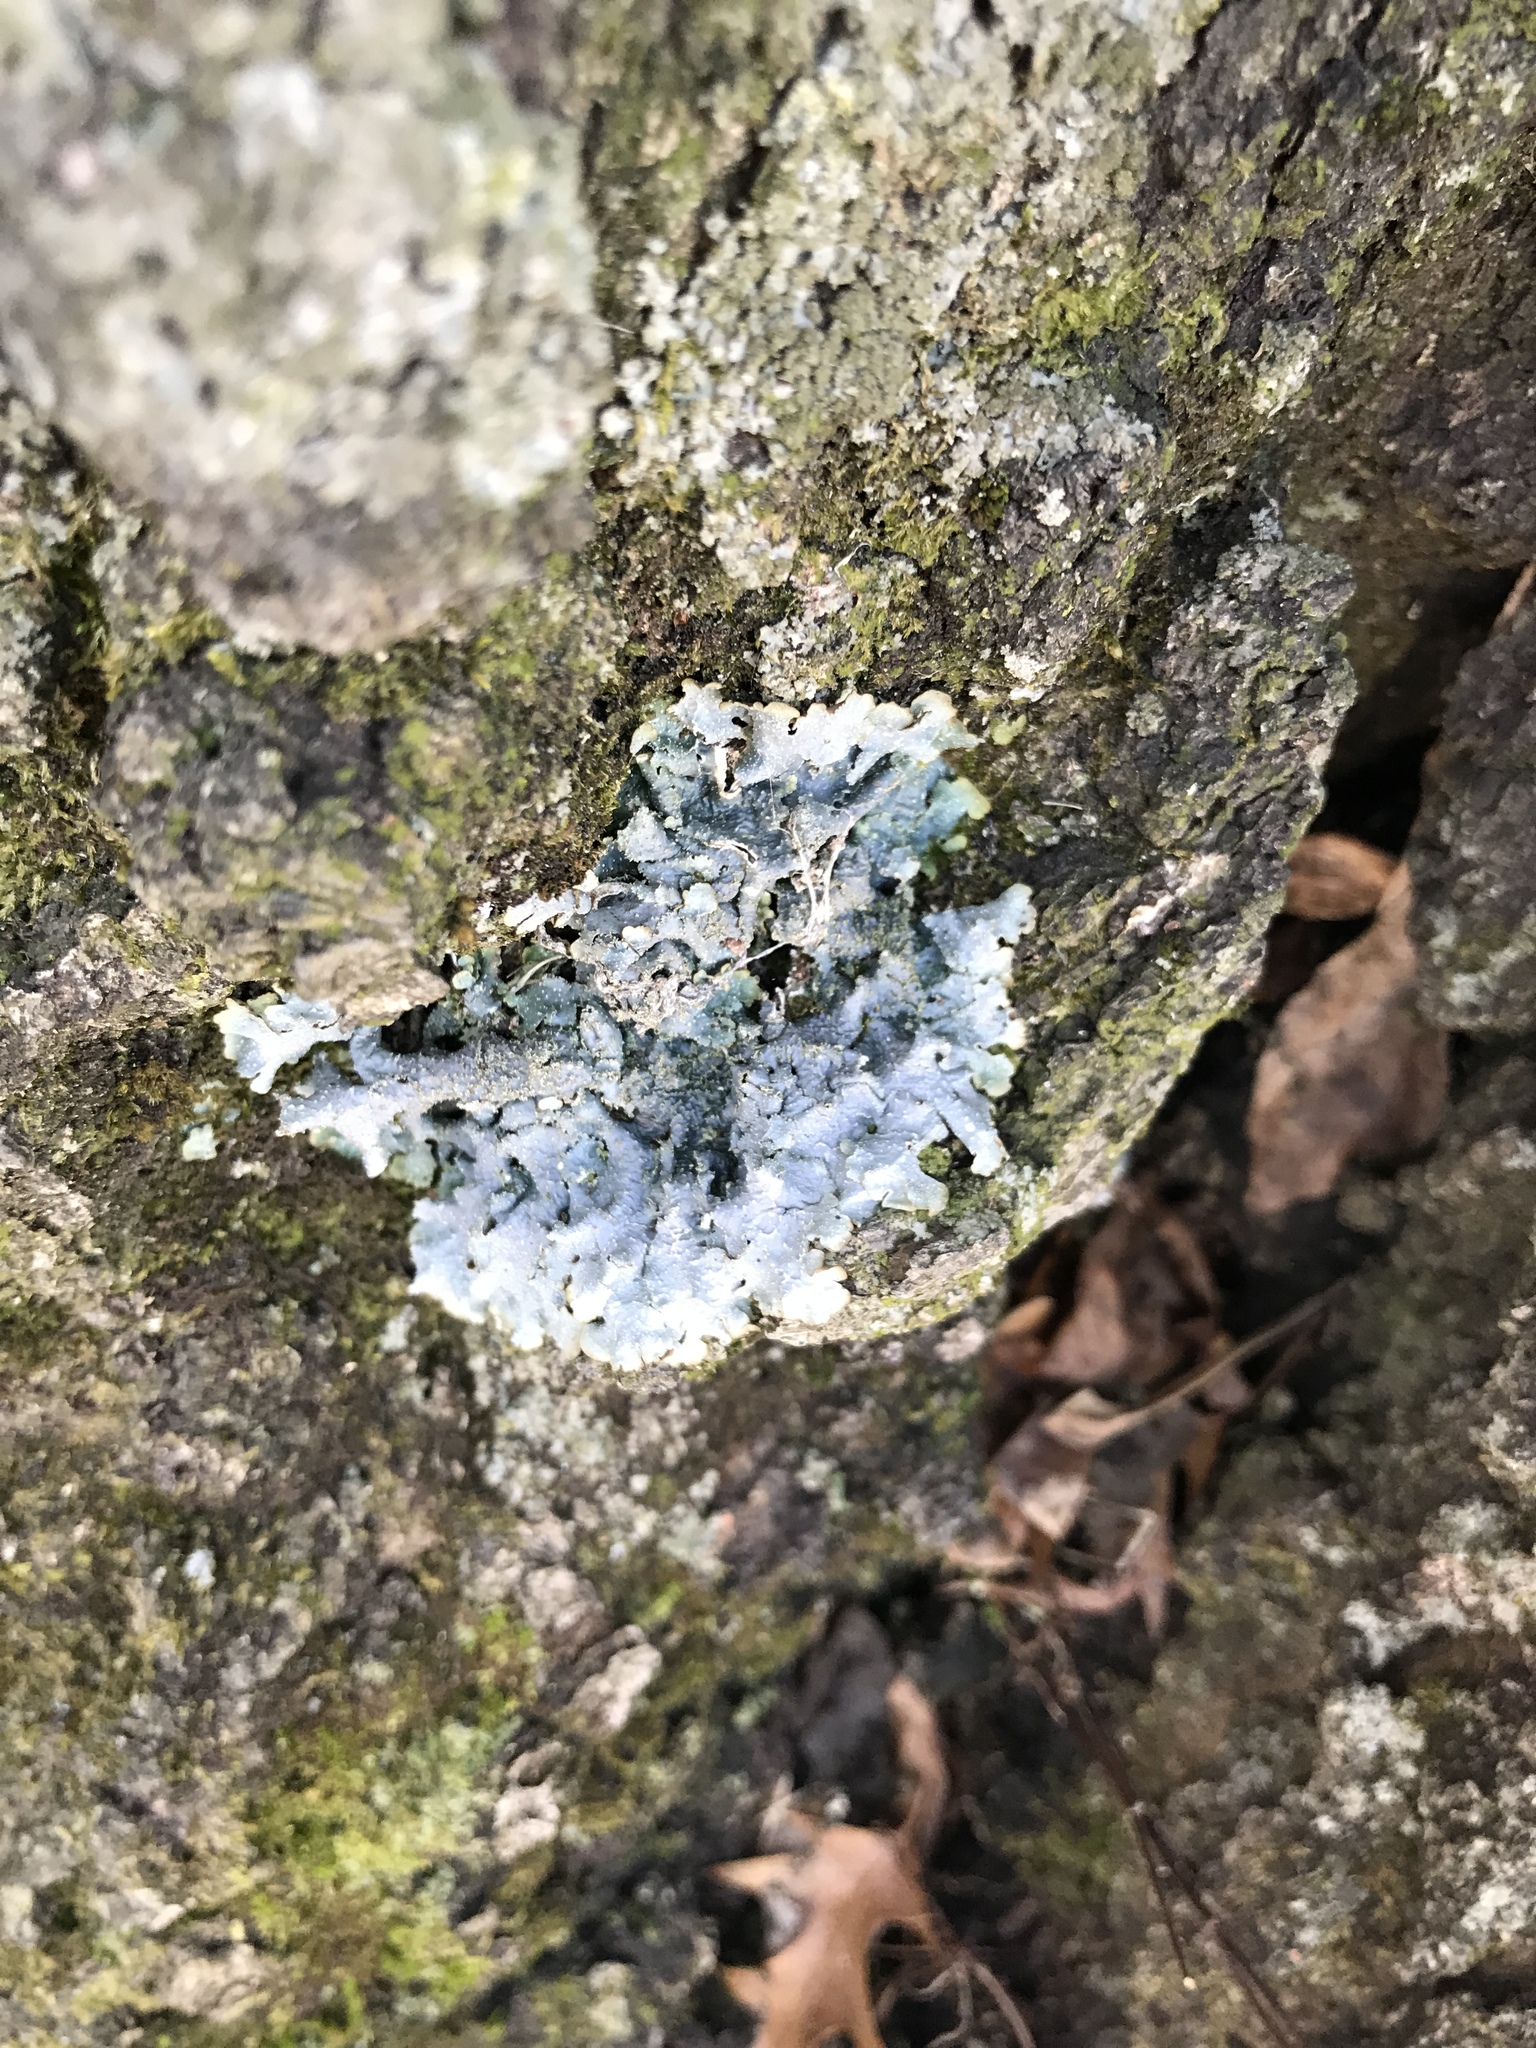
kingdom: Fungi
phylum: Ascomycota
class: Lecanoromycetes
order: Lecanorales
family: Parmeliaceae
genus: Punctelia
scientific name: Punctelia rudecta
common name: Rough speckled shield lichen
